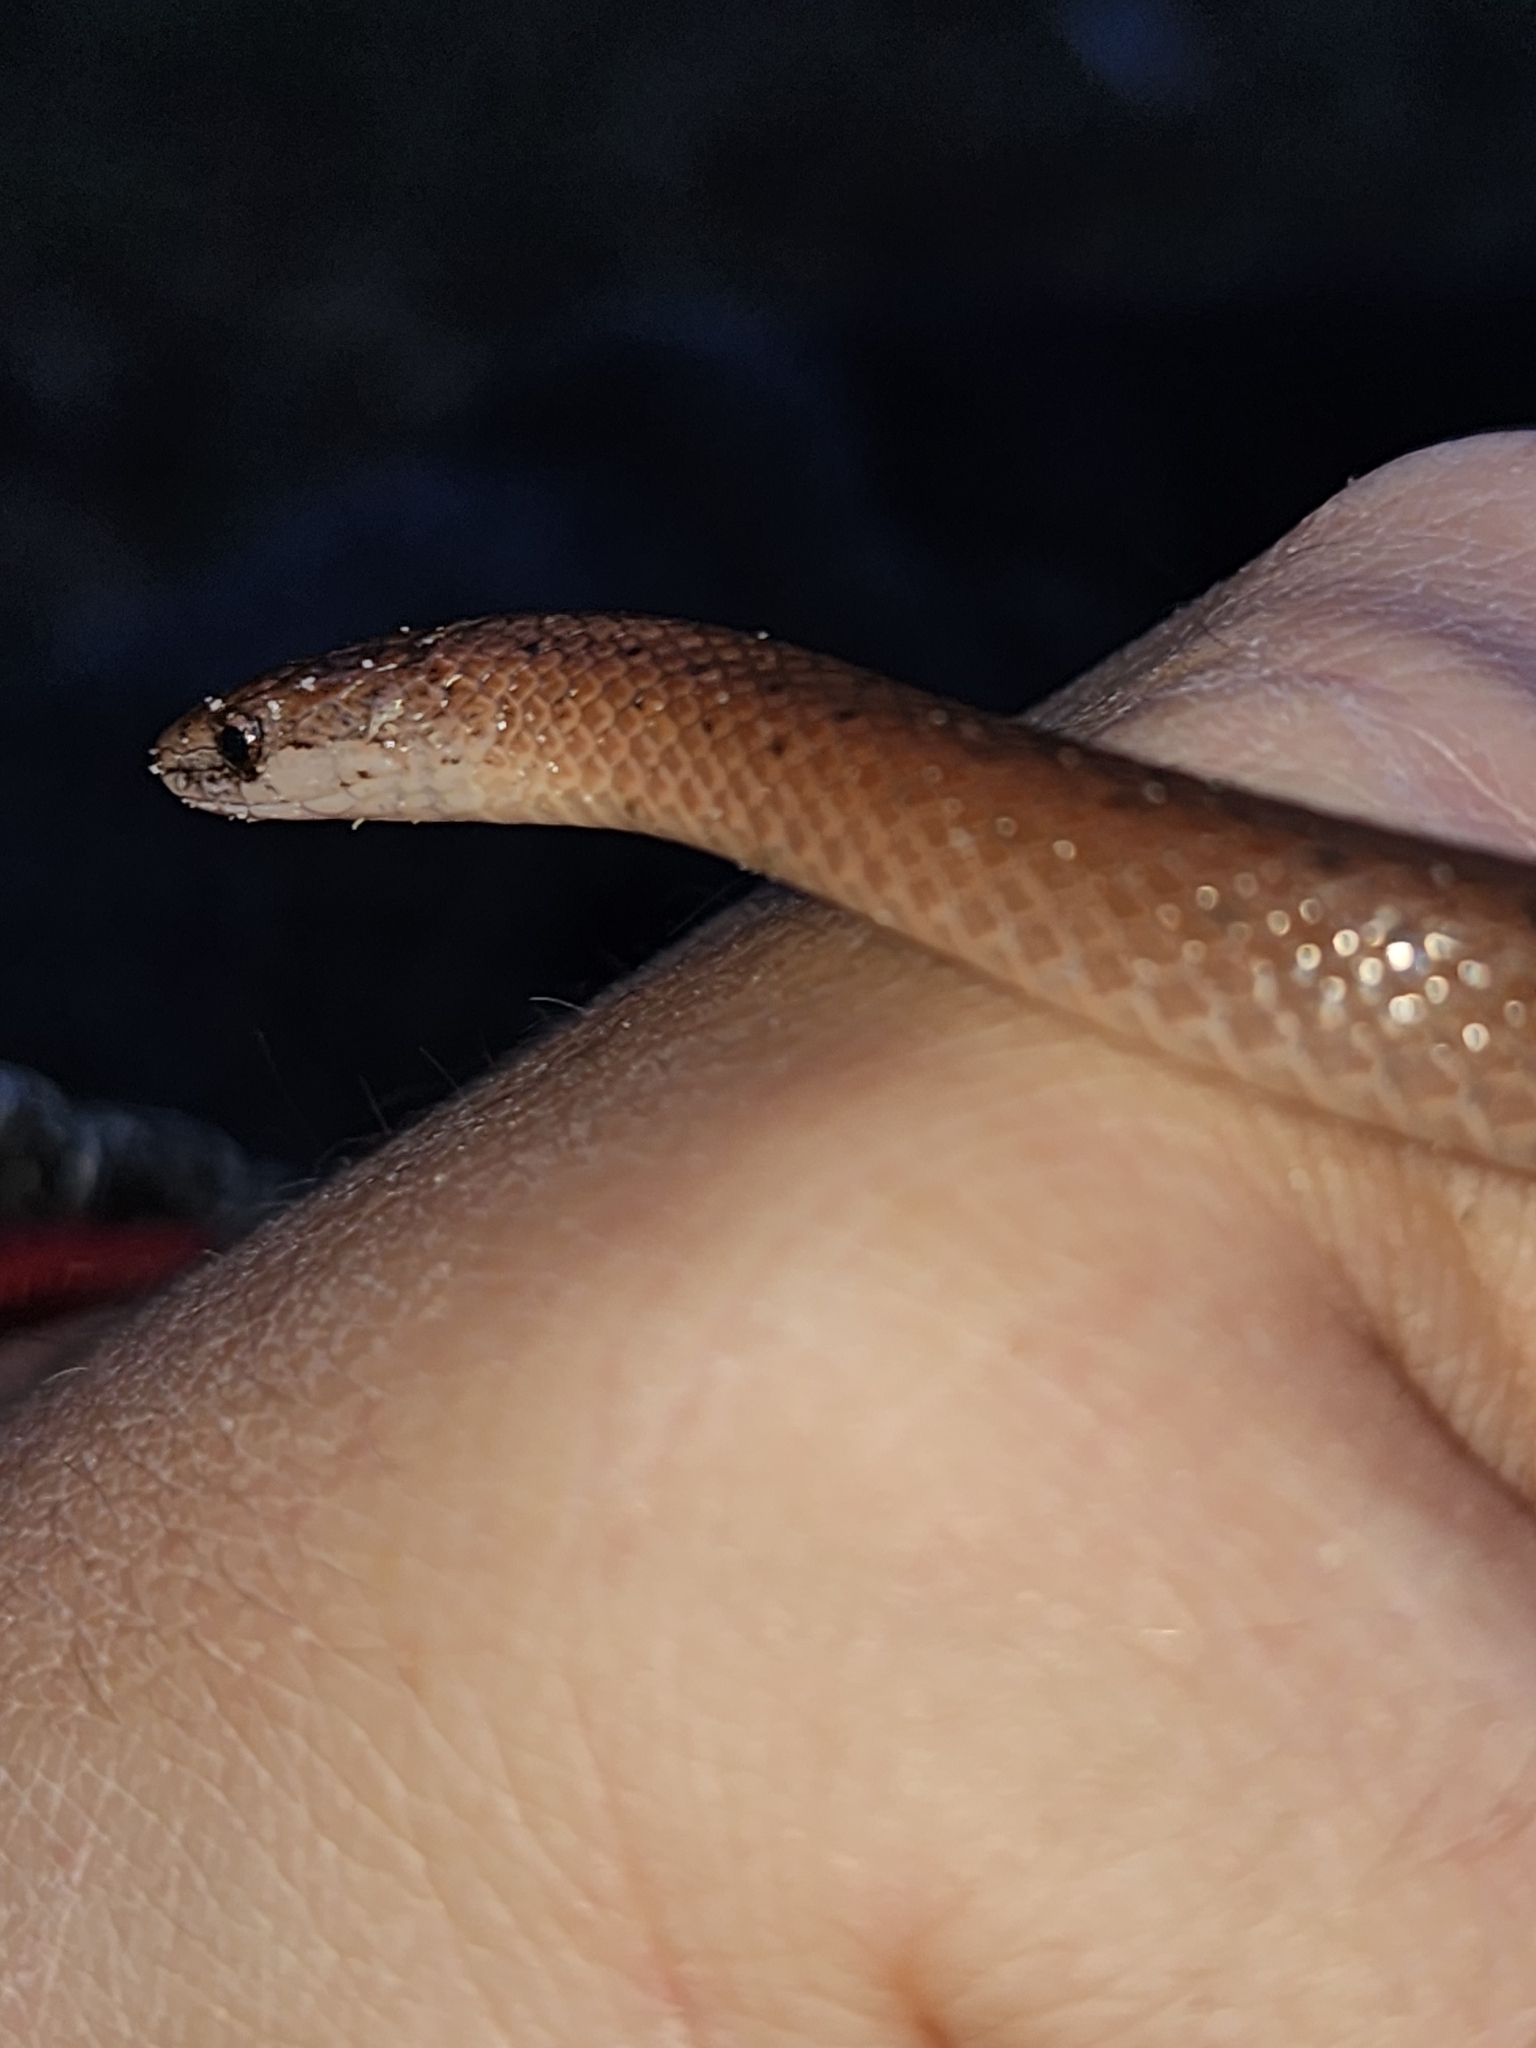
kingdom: Animalia
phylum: Chordata
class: Squamata
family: Colubridae
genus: Virginia
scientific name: Virginia valeriae
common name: Smooth earth snake
